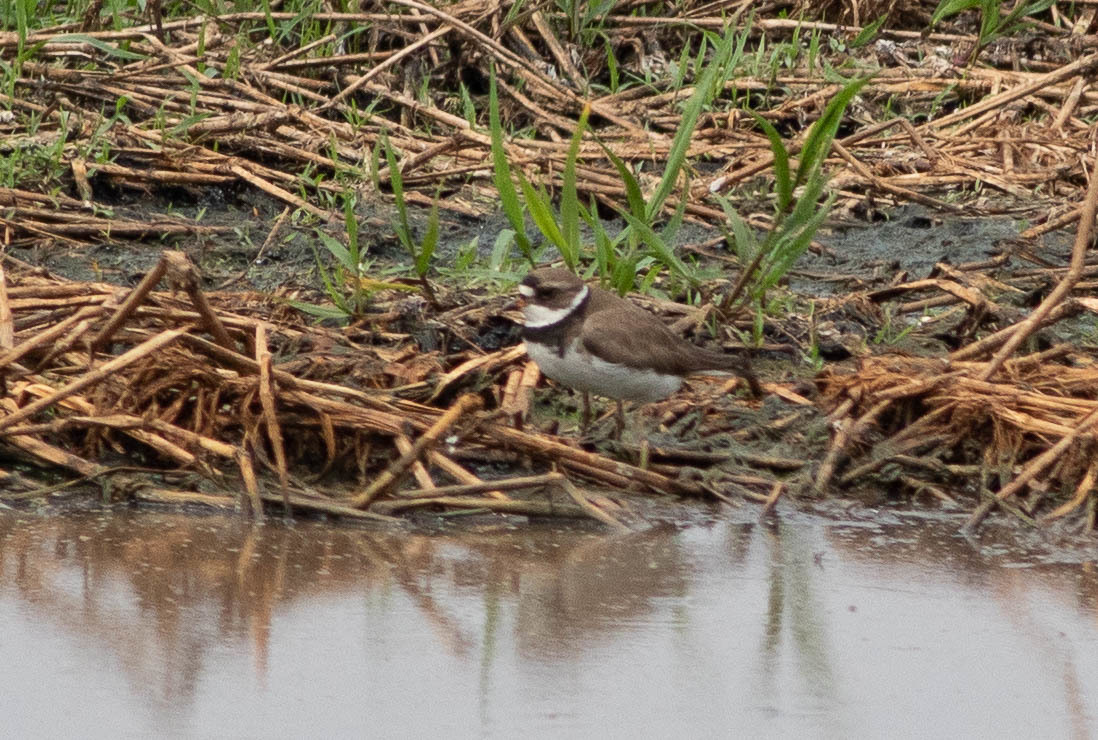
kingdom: Animalia
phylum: Chordata
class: Aves
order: Charadriiformes
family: Charadriidae
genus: Charadrius
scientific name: Charadrius semipalmatus
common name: Semipalmated plover
